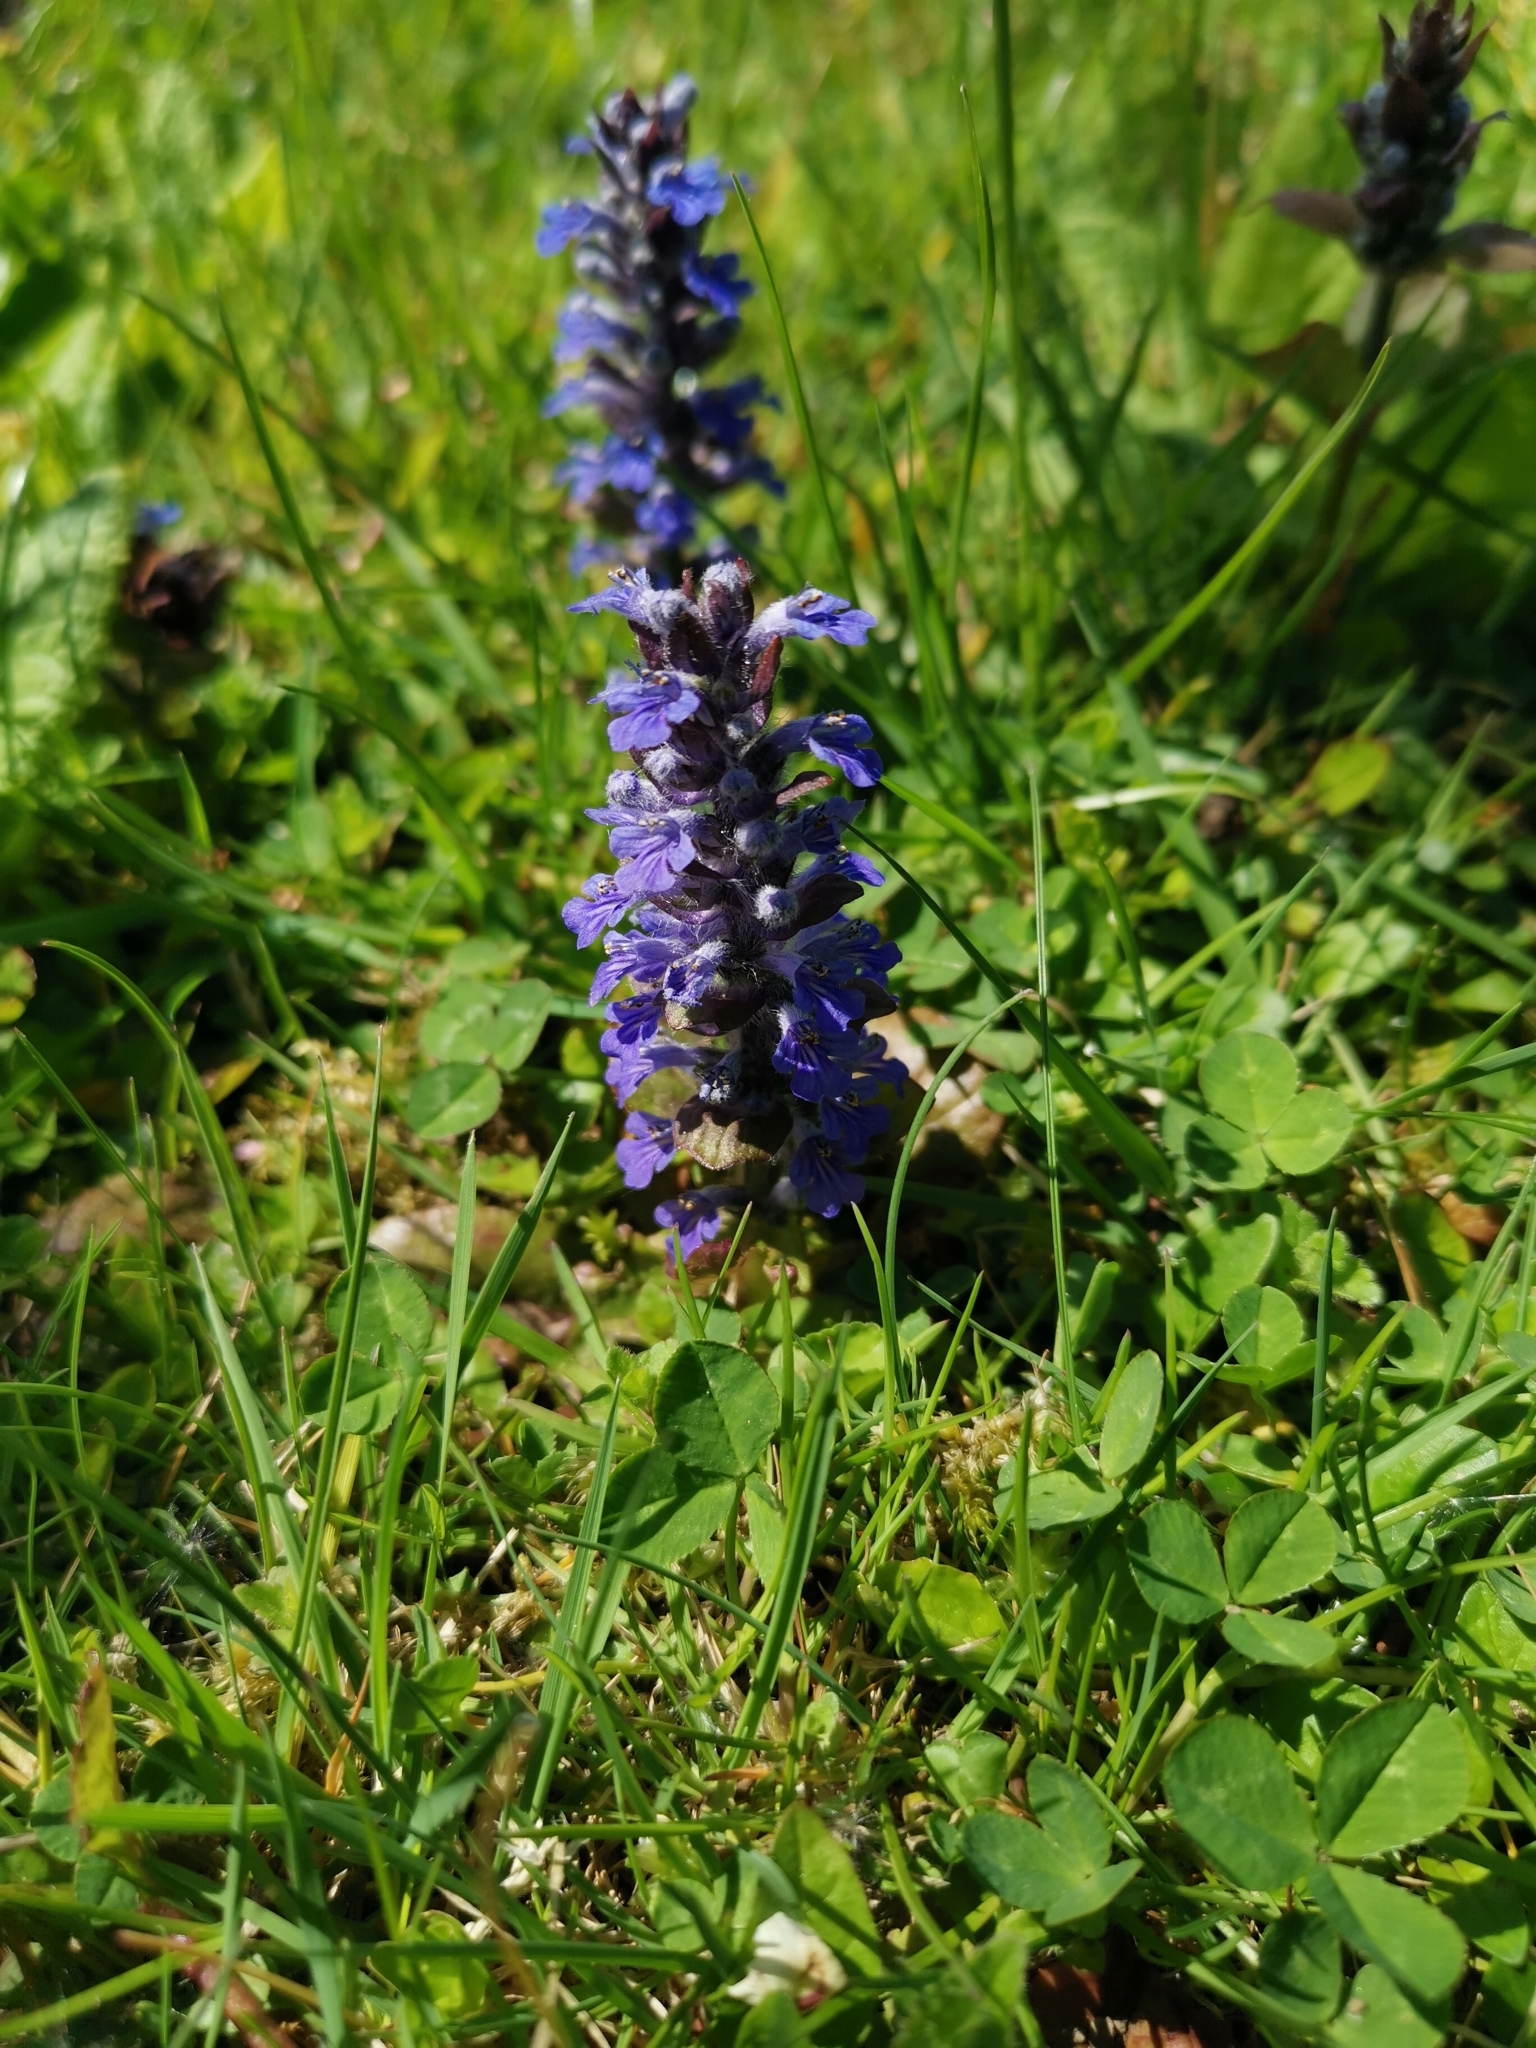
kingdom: Plantae
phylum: Tracheophyta
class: Magnoliopsida
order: Lamiales
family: Lamiaceae
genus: Ajuga
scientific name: Ajuga reptans
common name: Bugle
